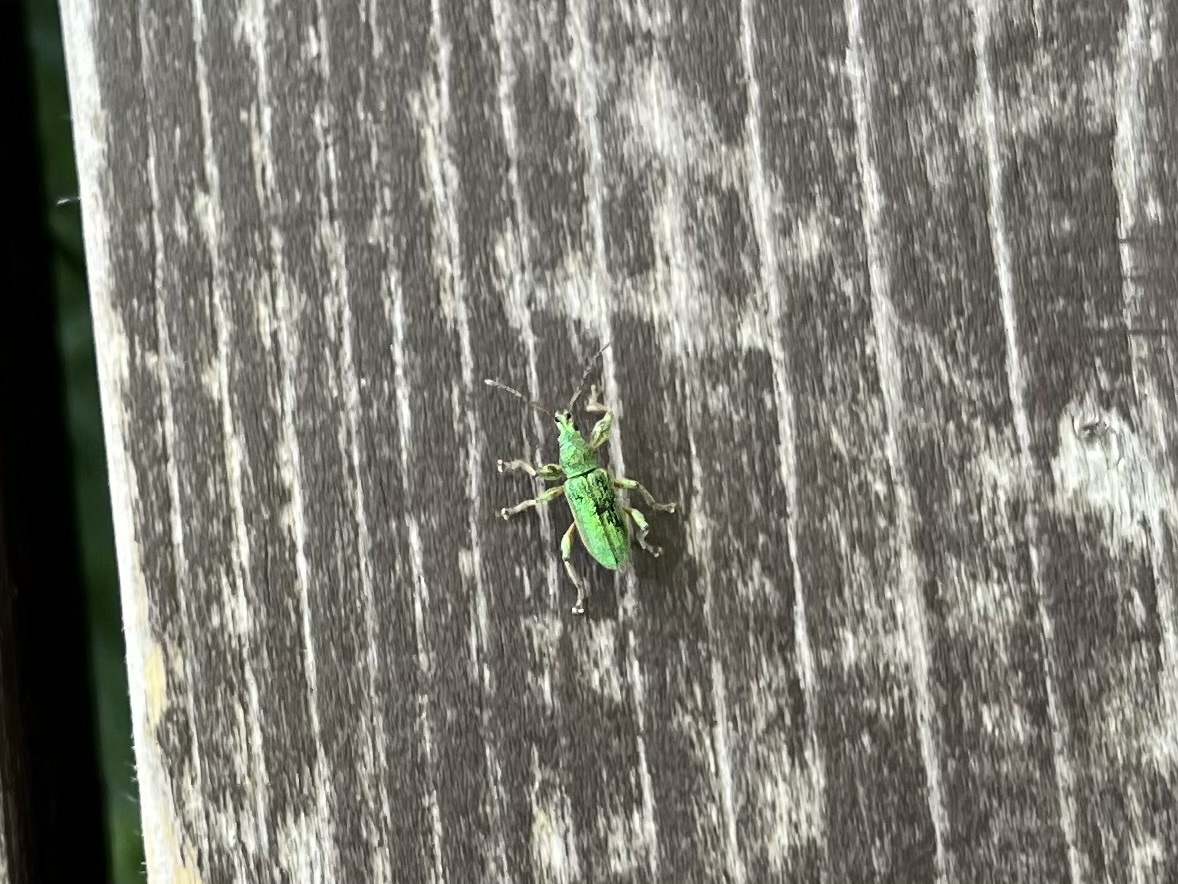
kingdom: Animalia
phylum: Arthropoda
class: Insecta
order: Coleoptera
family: Curculionidae
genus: Phyllobius
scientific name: Phyllobius arborator
